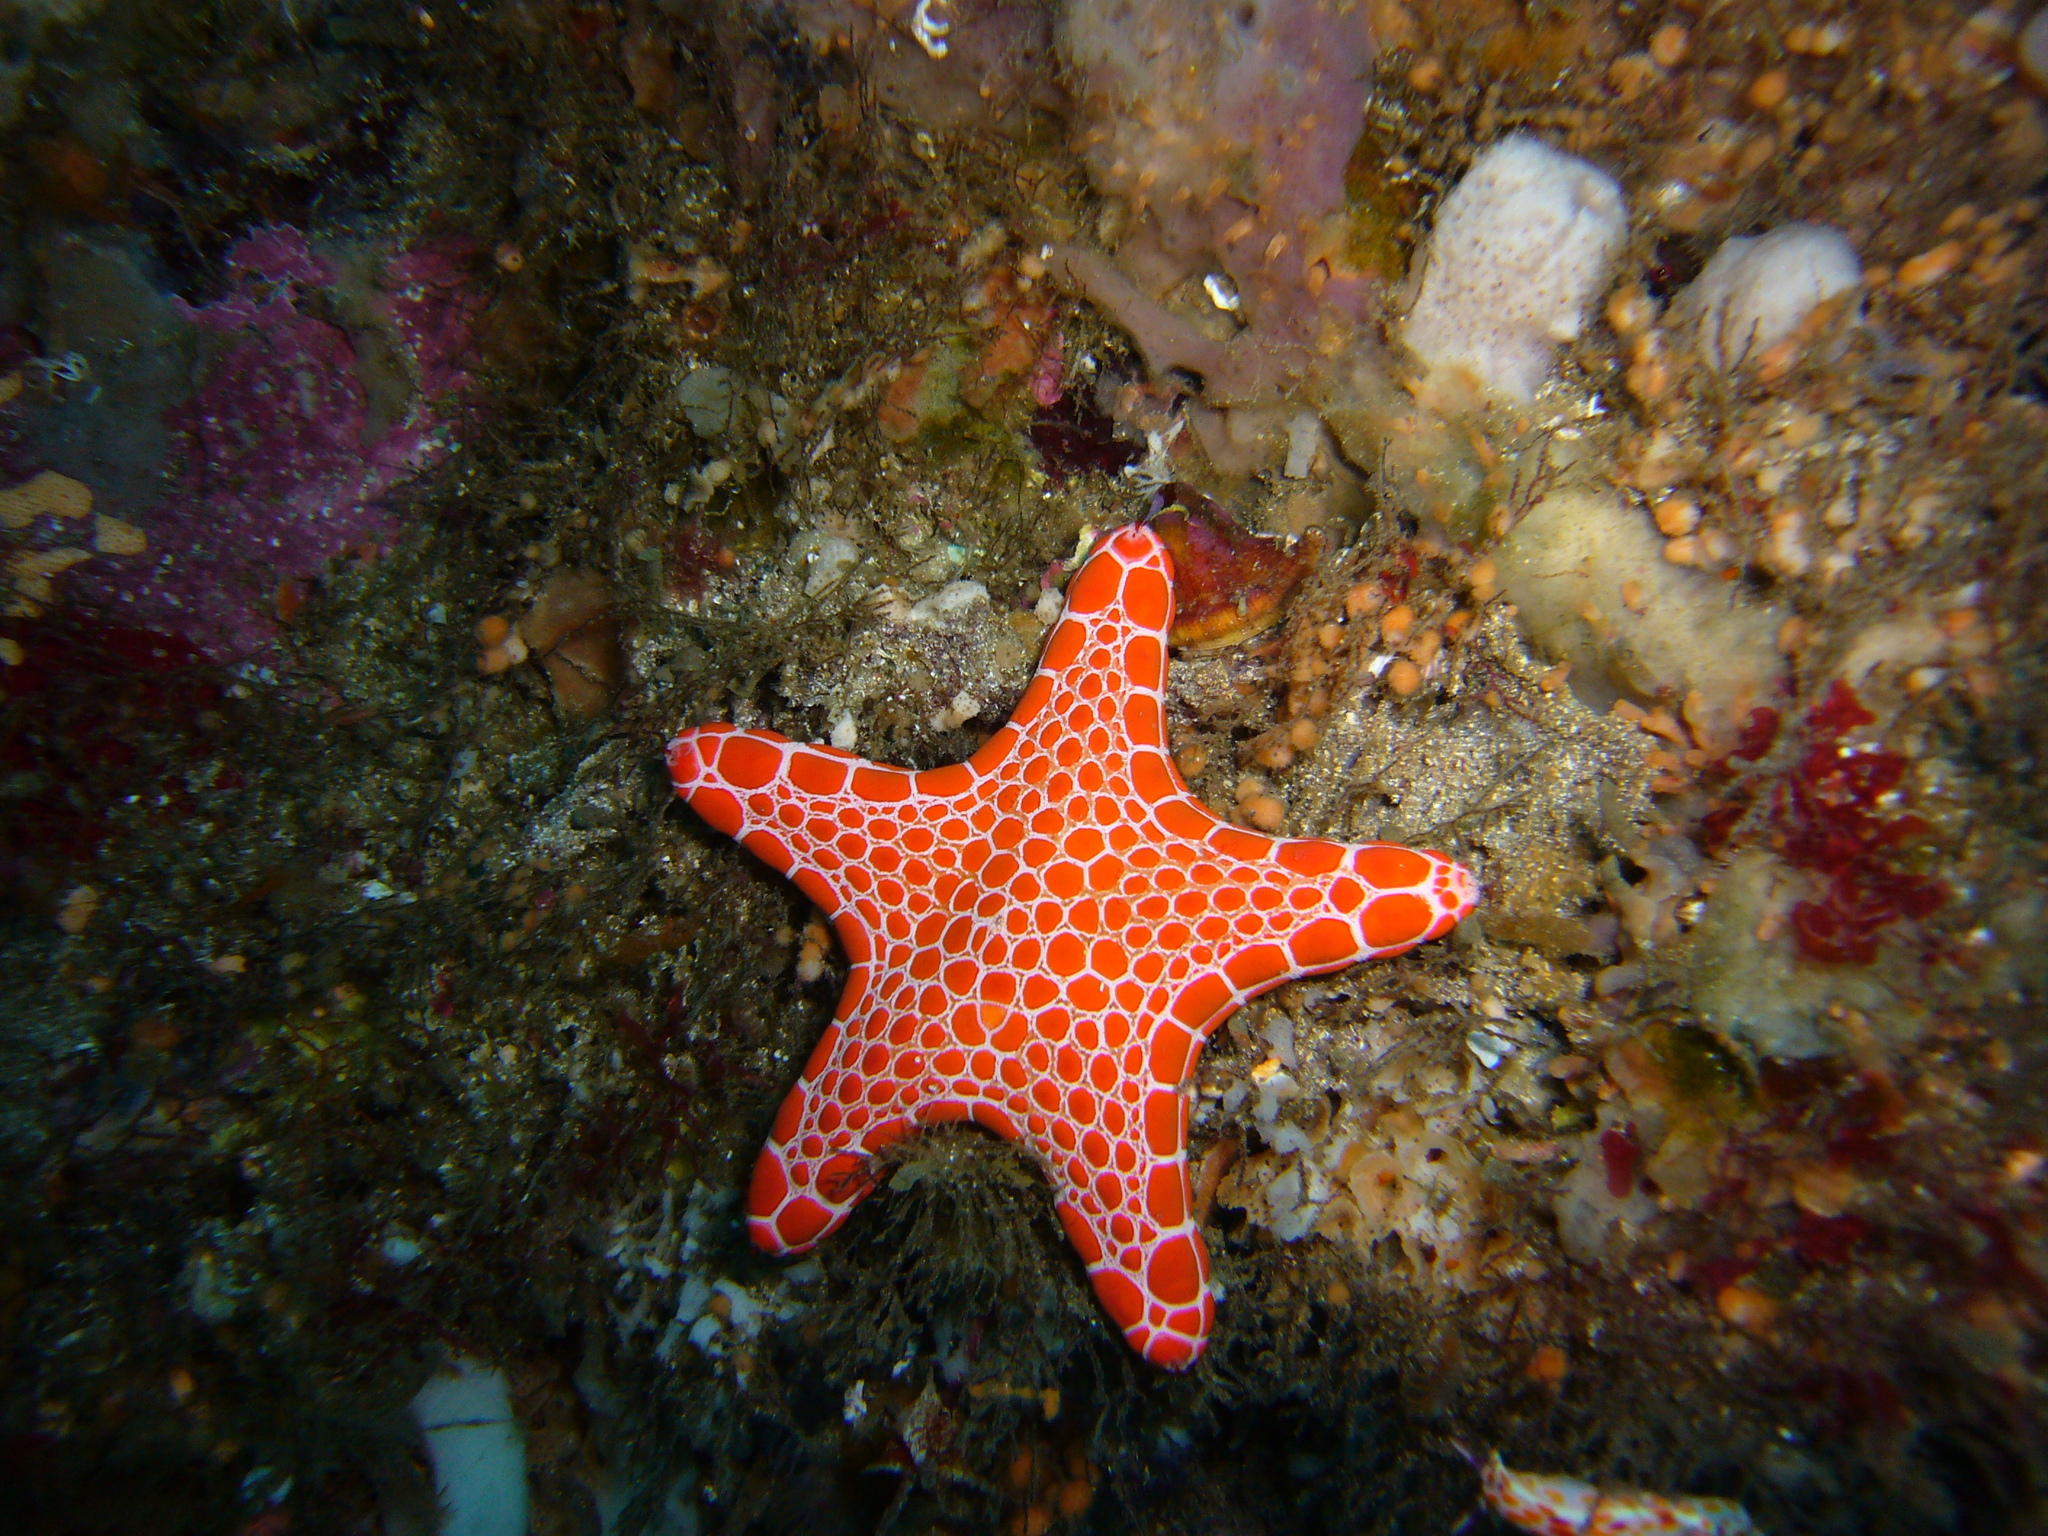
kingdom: Animalia
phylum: Echinodermata
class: Asteroidea
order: Valvatida
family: Goniasteridae
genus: Pentagonaster
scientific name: Pentagonaster duebeni
